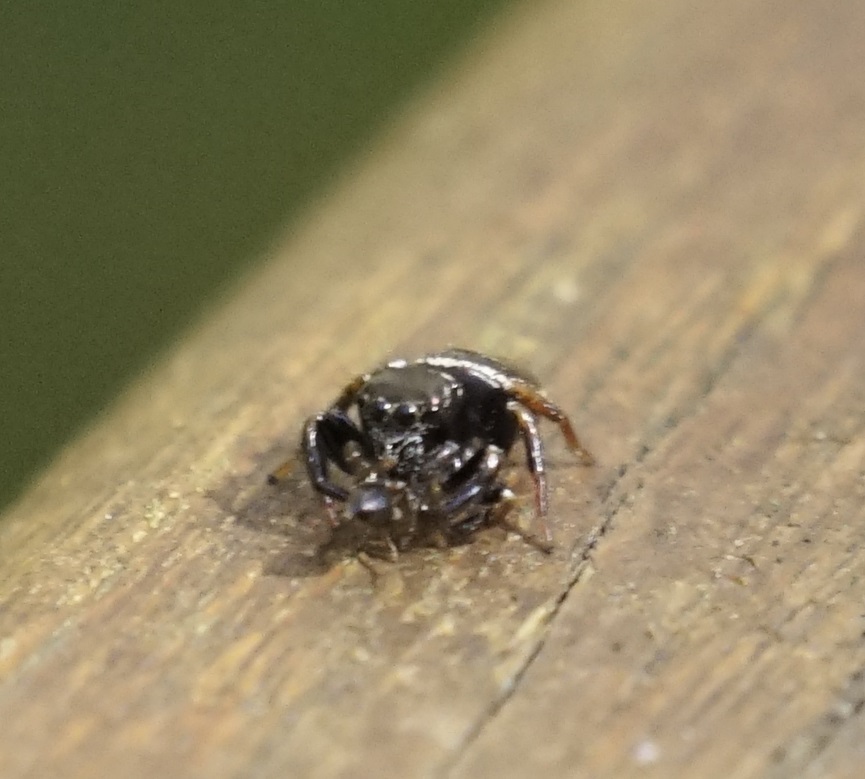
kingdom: Animalia
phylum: Arthropoda
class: Arachnida
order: Araneae
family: Salticidae
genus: Zenodorus
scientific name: Zenodorus orbiculatus
